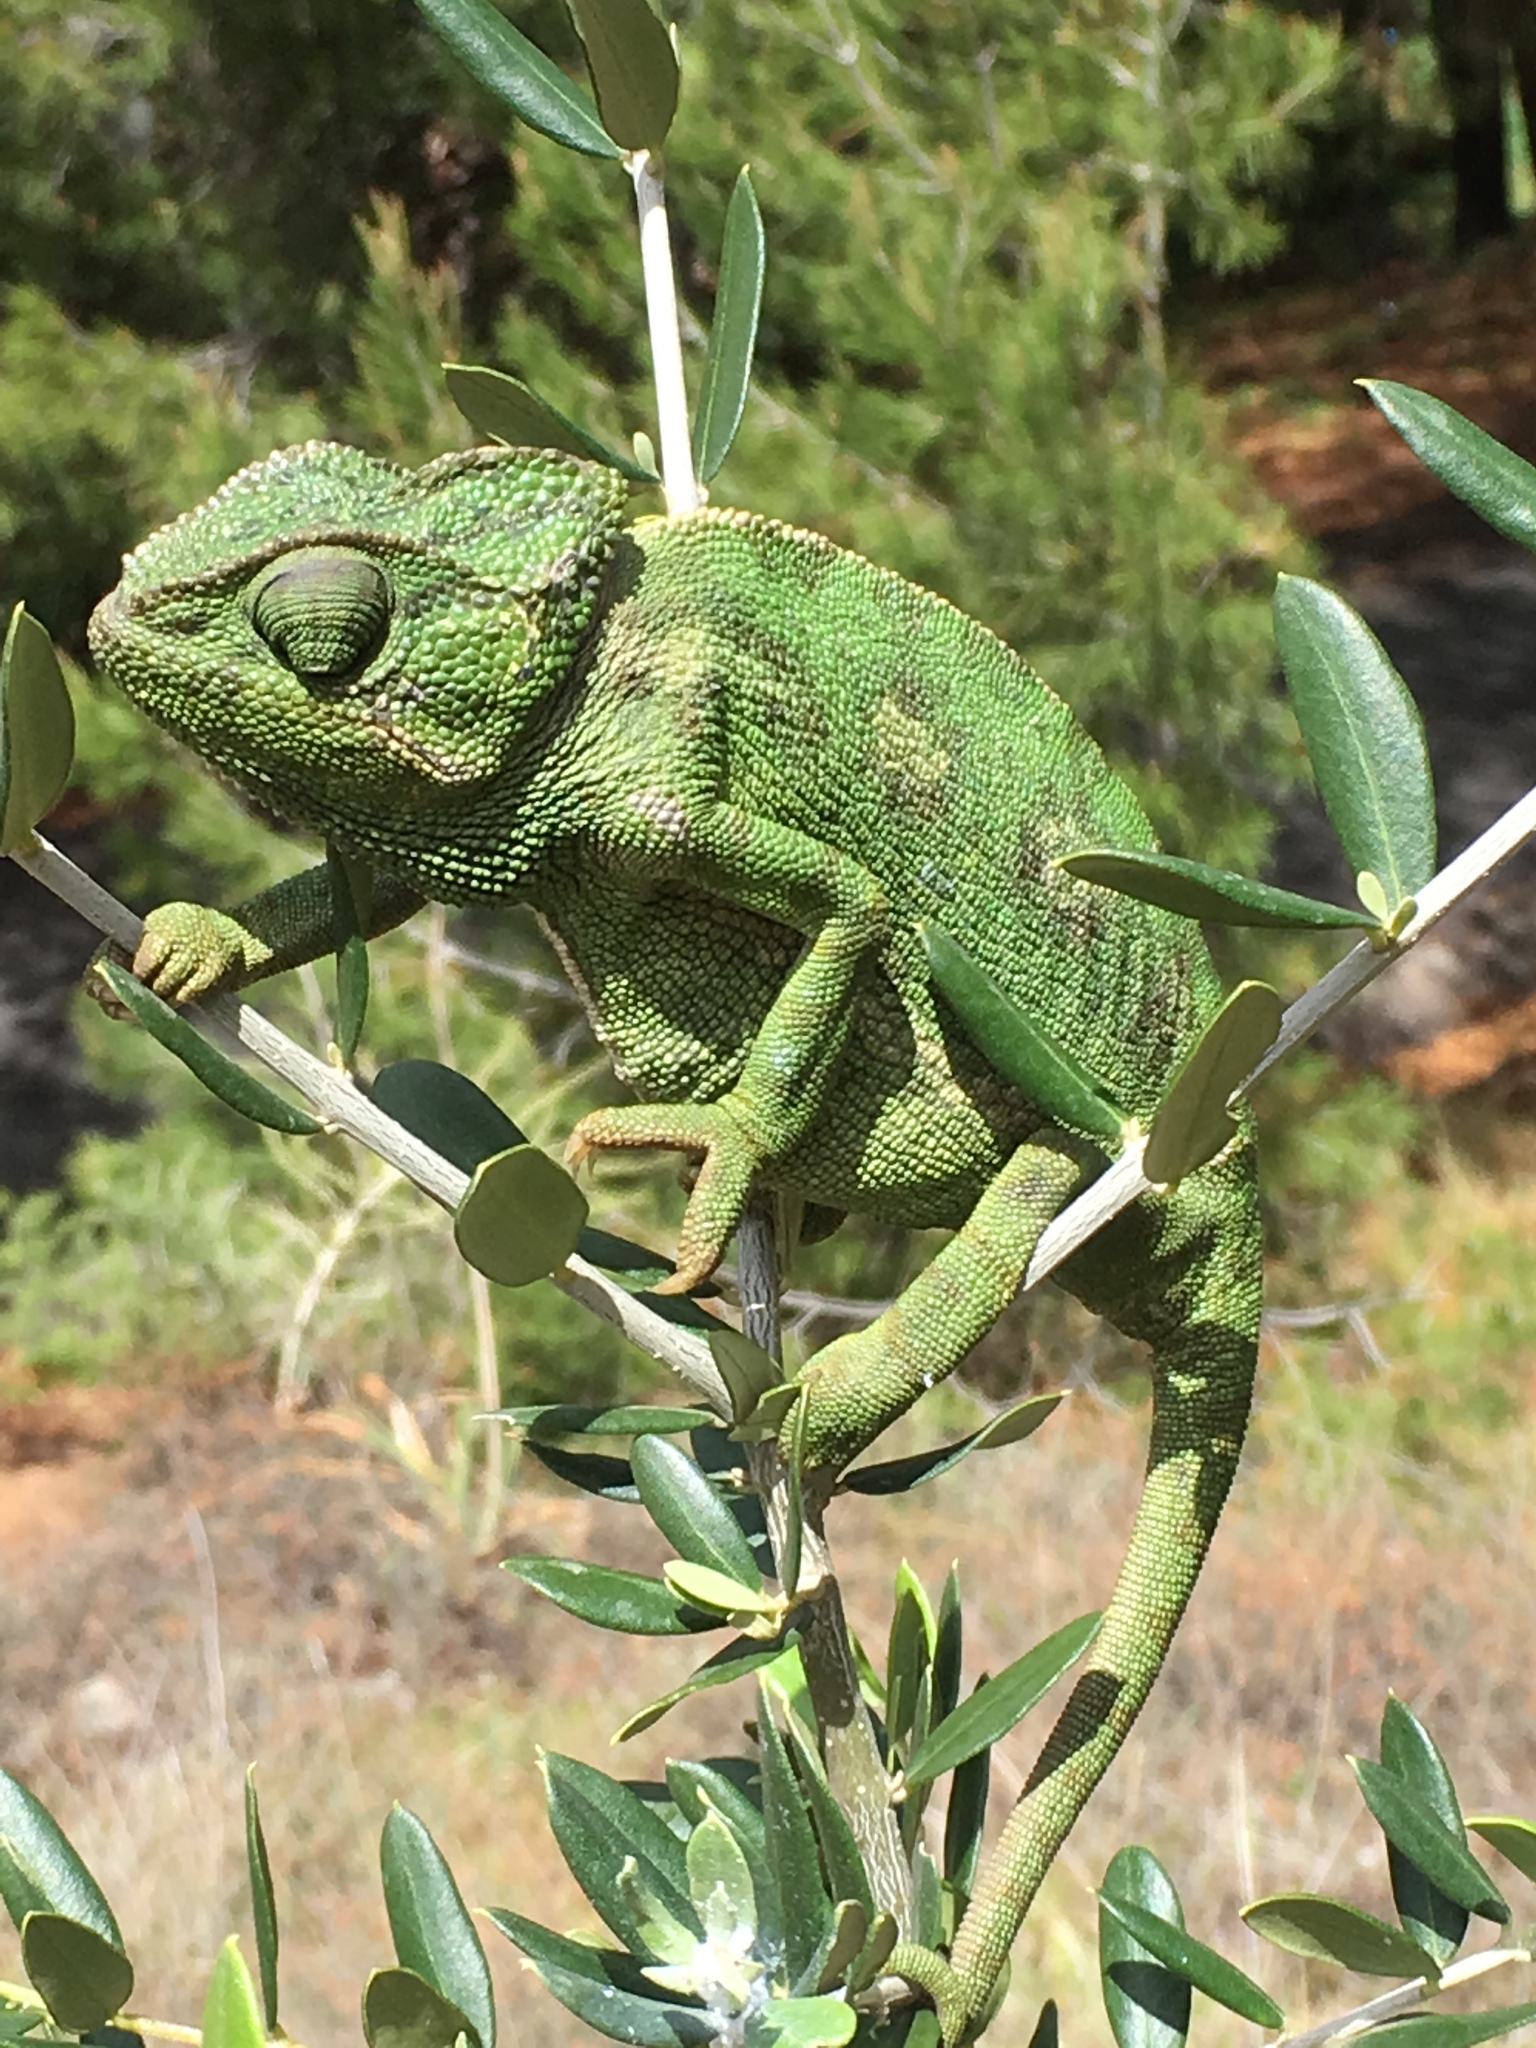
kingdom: Animalia
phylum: Chordata
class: Squamata
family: Chamaeleonidae
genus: Chamaeleo
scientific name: Chamaeleo chamaeleon
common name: Mediterranean chameleon
